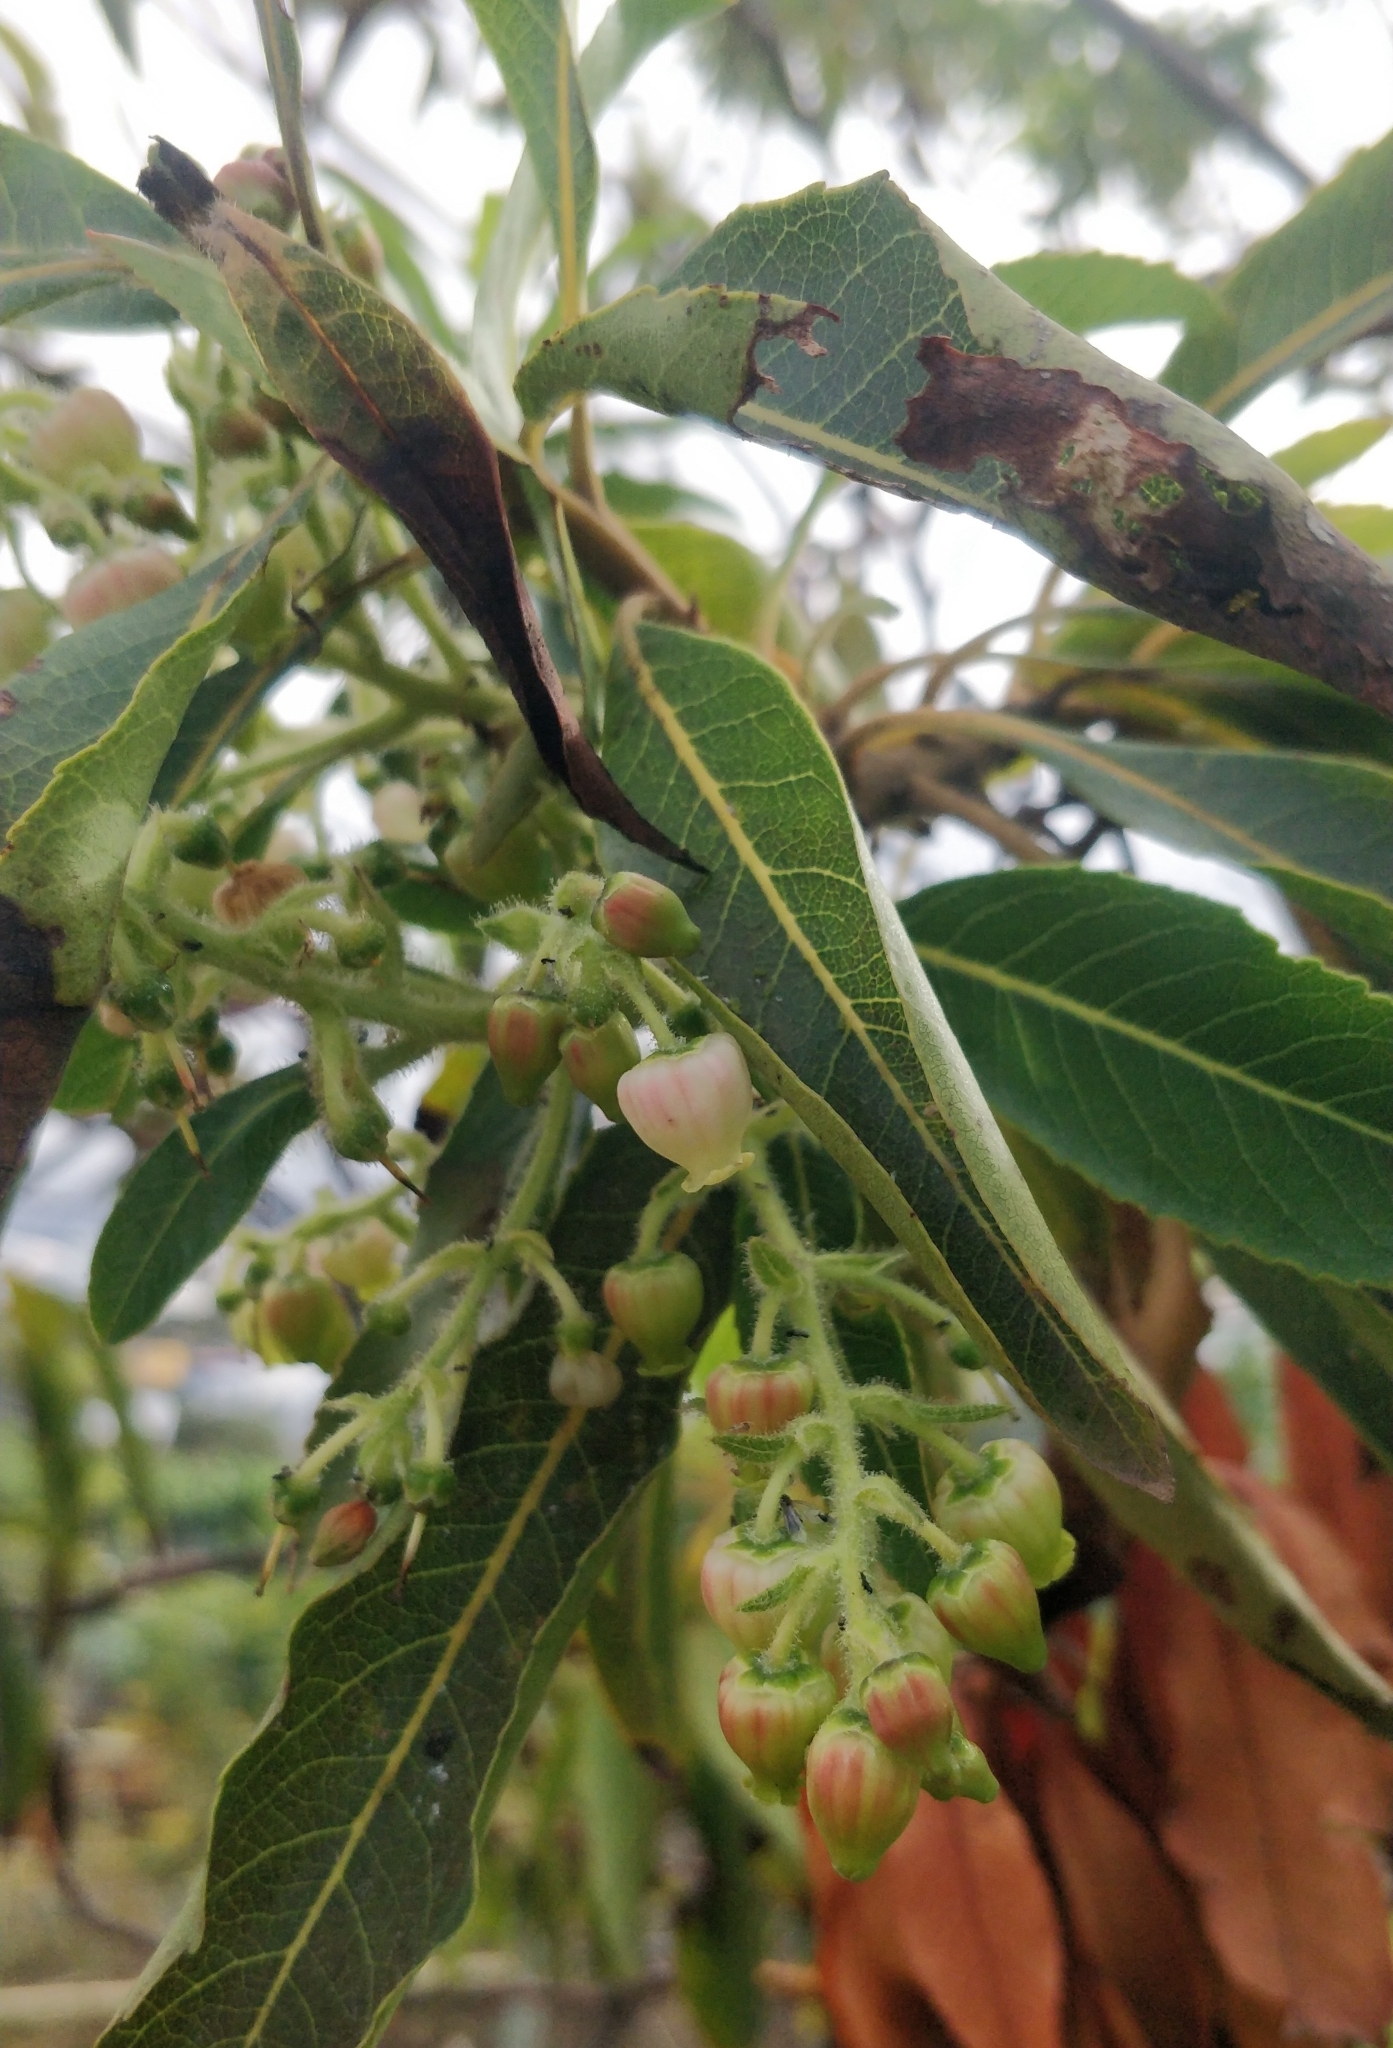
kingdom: Plantae
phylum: Tracheophyta
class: Magnoliopsida
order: Ericales
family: Ericaceae
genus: Arbutus
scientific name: Arbutus canariensis
